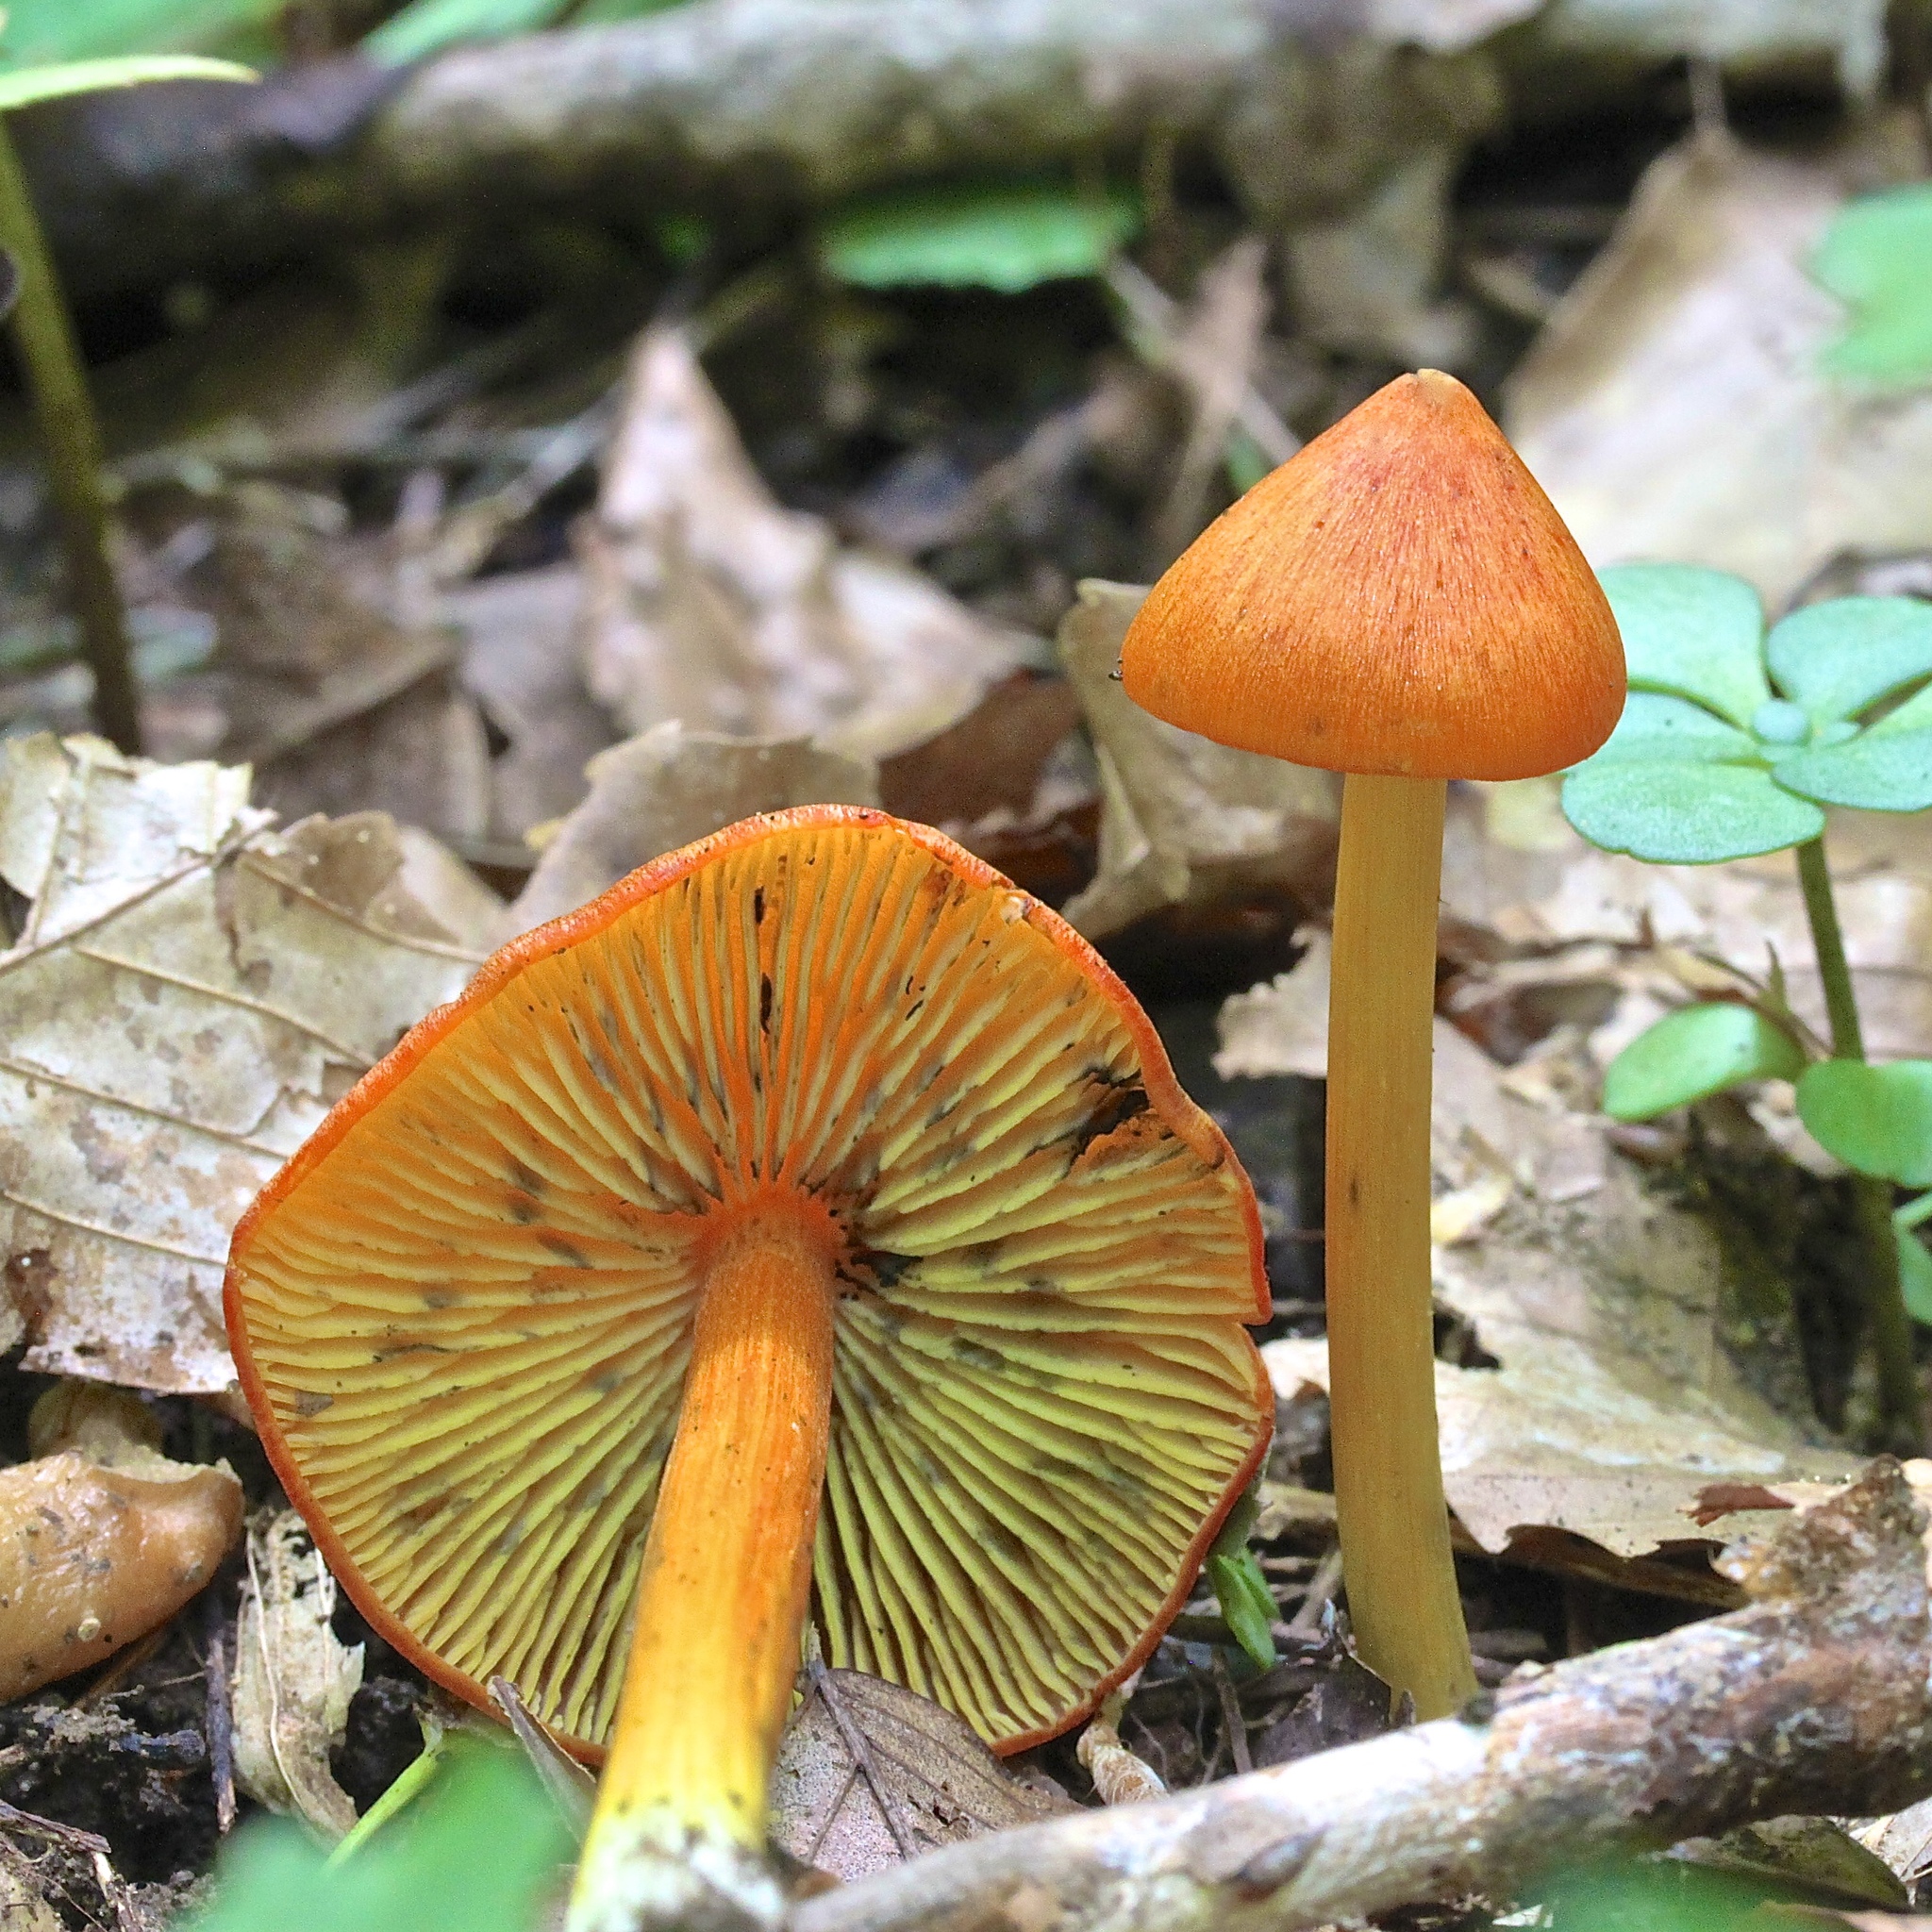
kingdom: Fungi
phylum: Basidiomycota
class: Agaricomycetes
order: Agaricales
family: Hygrophoraceae
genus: Hygrocybe
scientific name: Hygrocybe conica
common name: Blackening wax-cap
